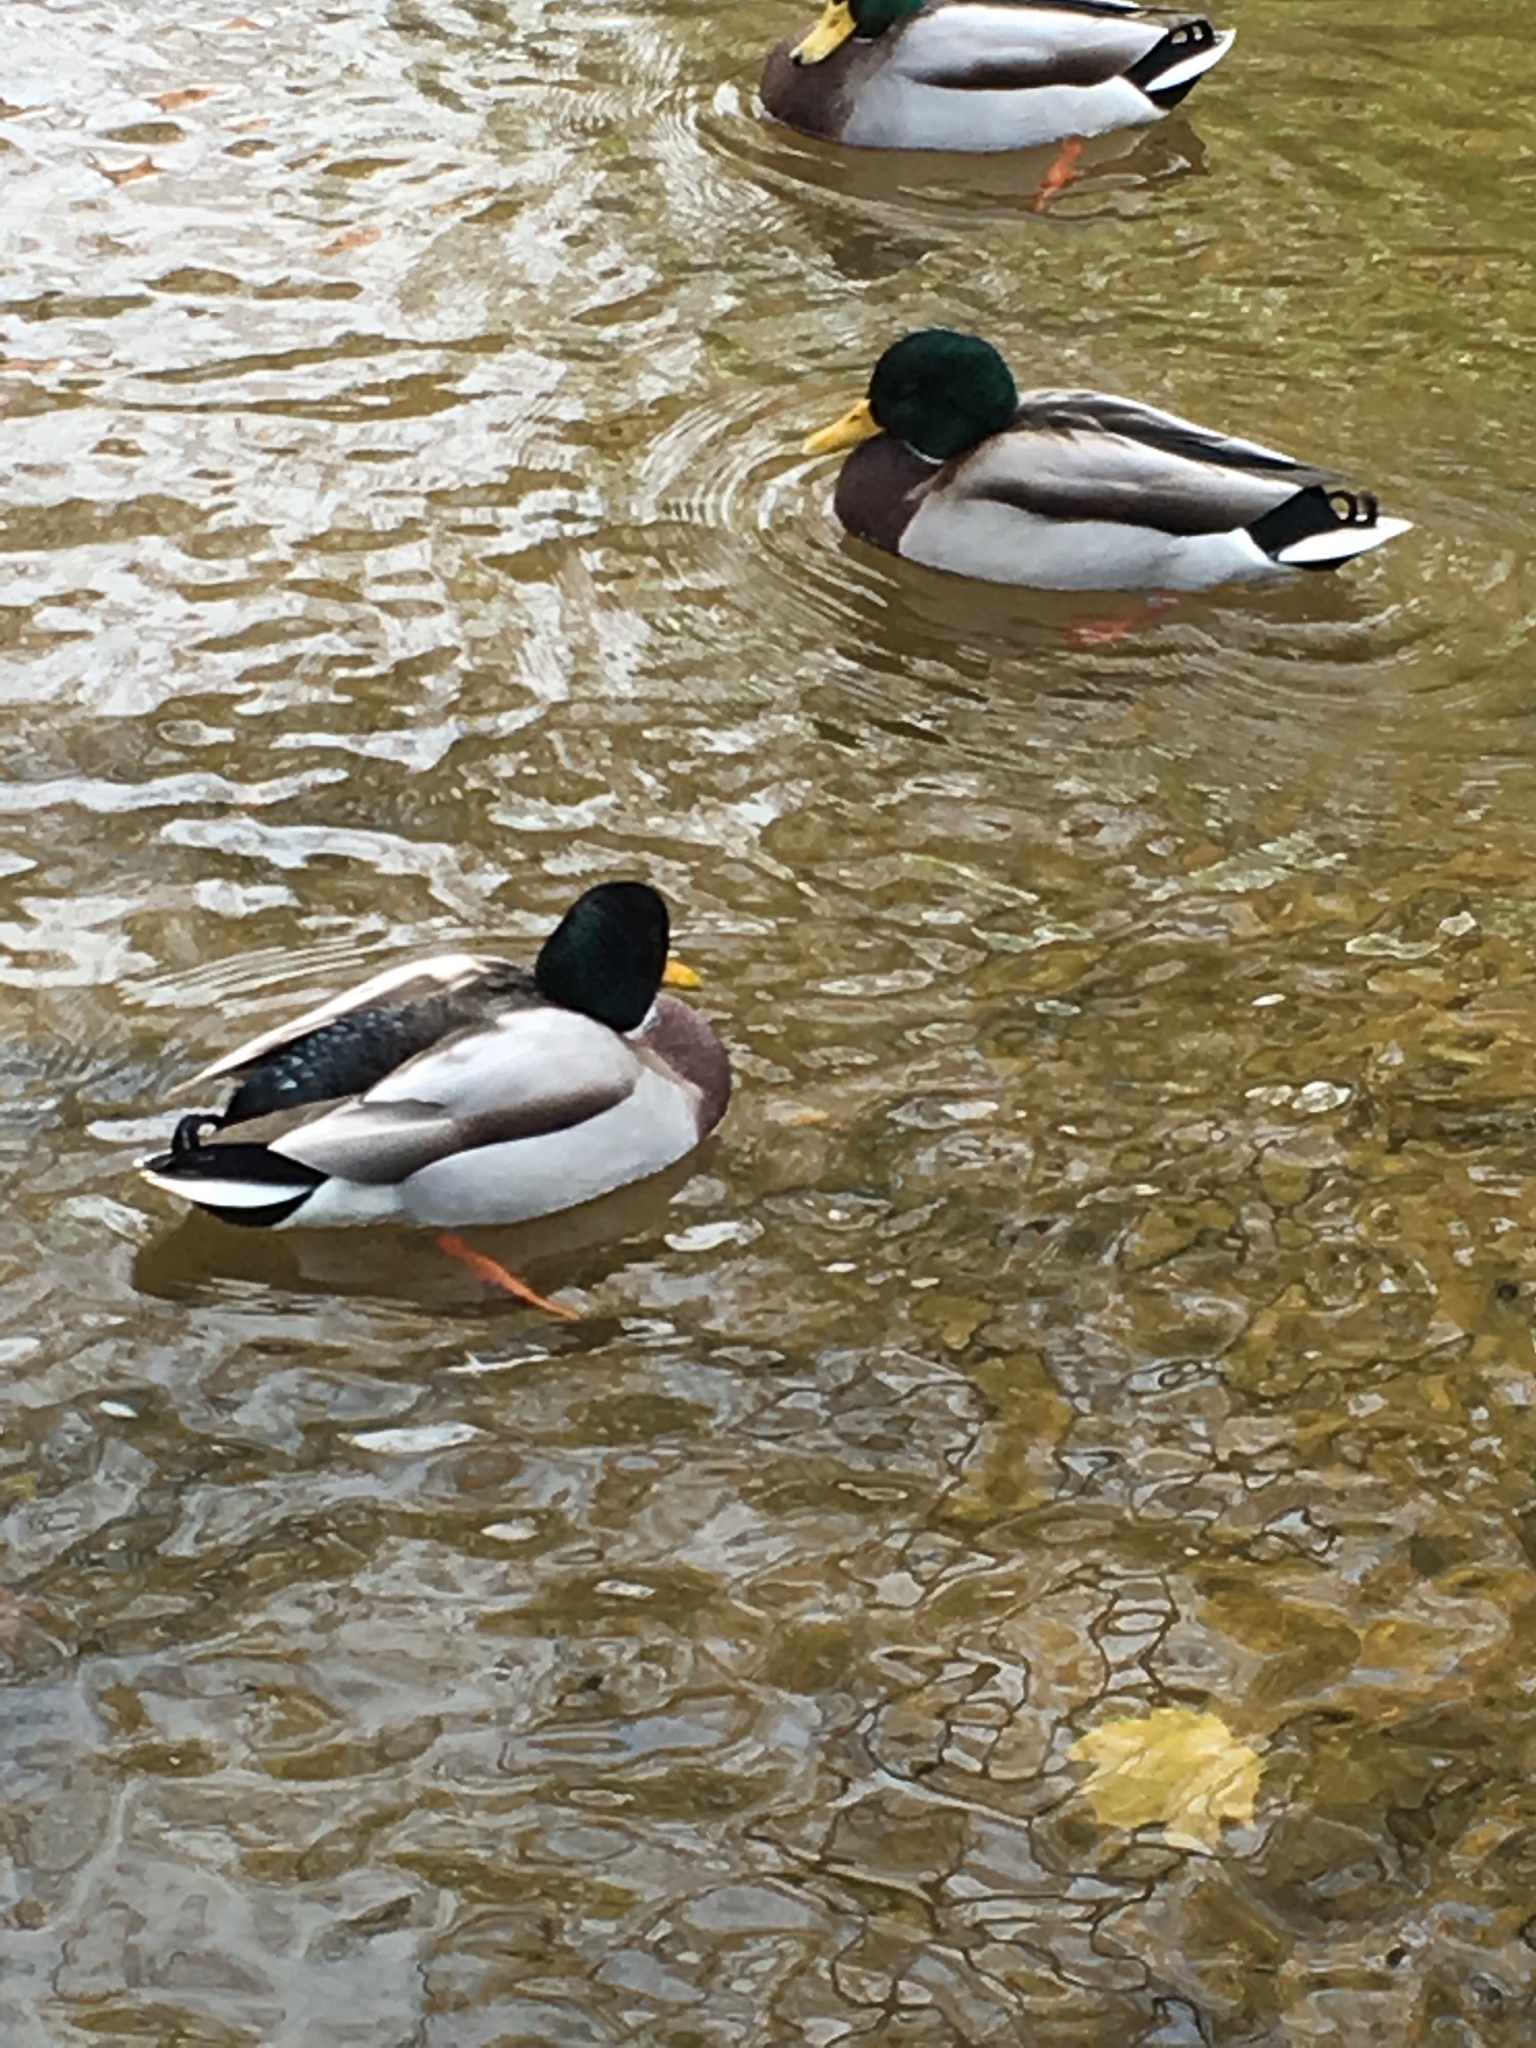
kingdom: Animalia
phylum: Chordata
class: Aves
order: Anseriformes
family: Anatidae
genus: Anas
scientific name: Anas platyrhynchos
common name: Mallard
